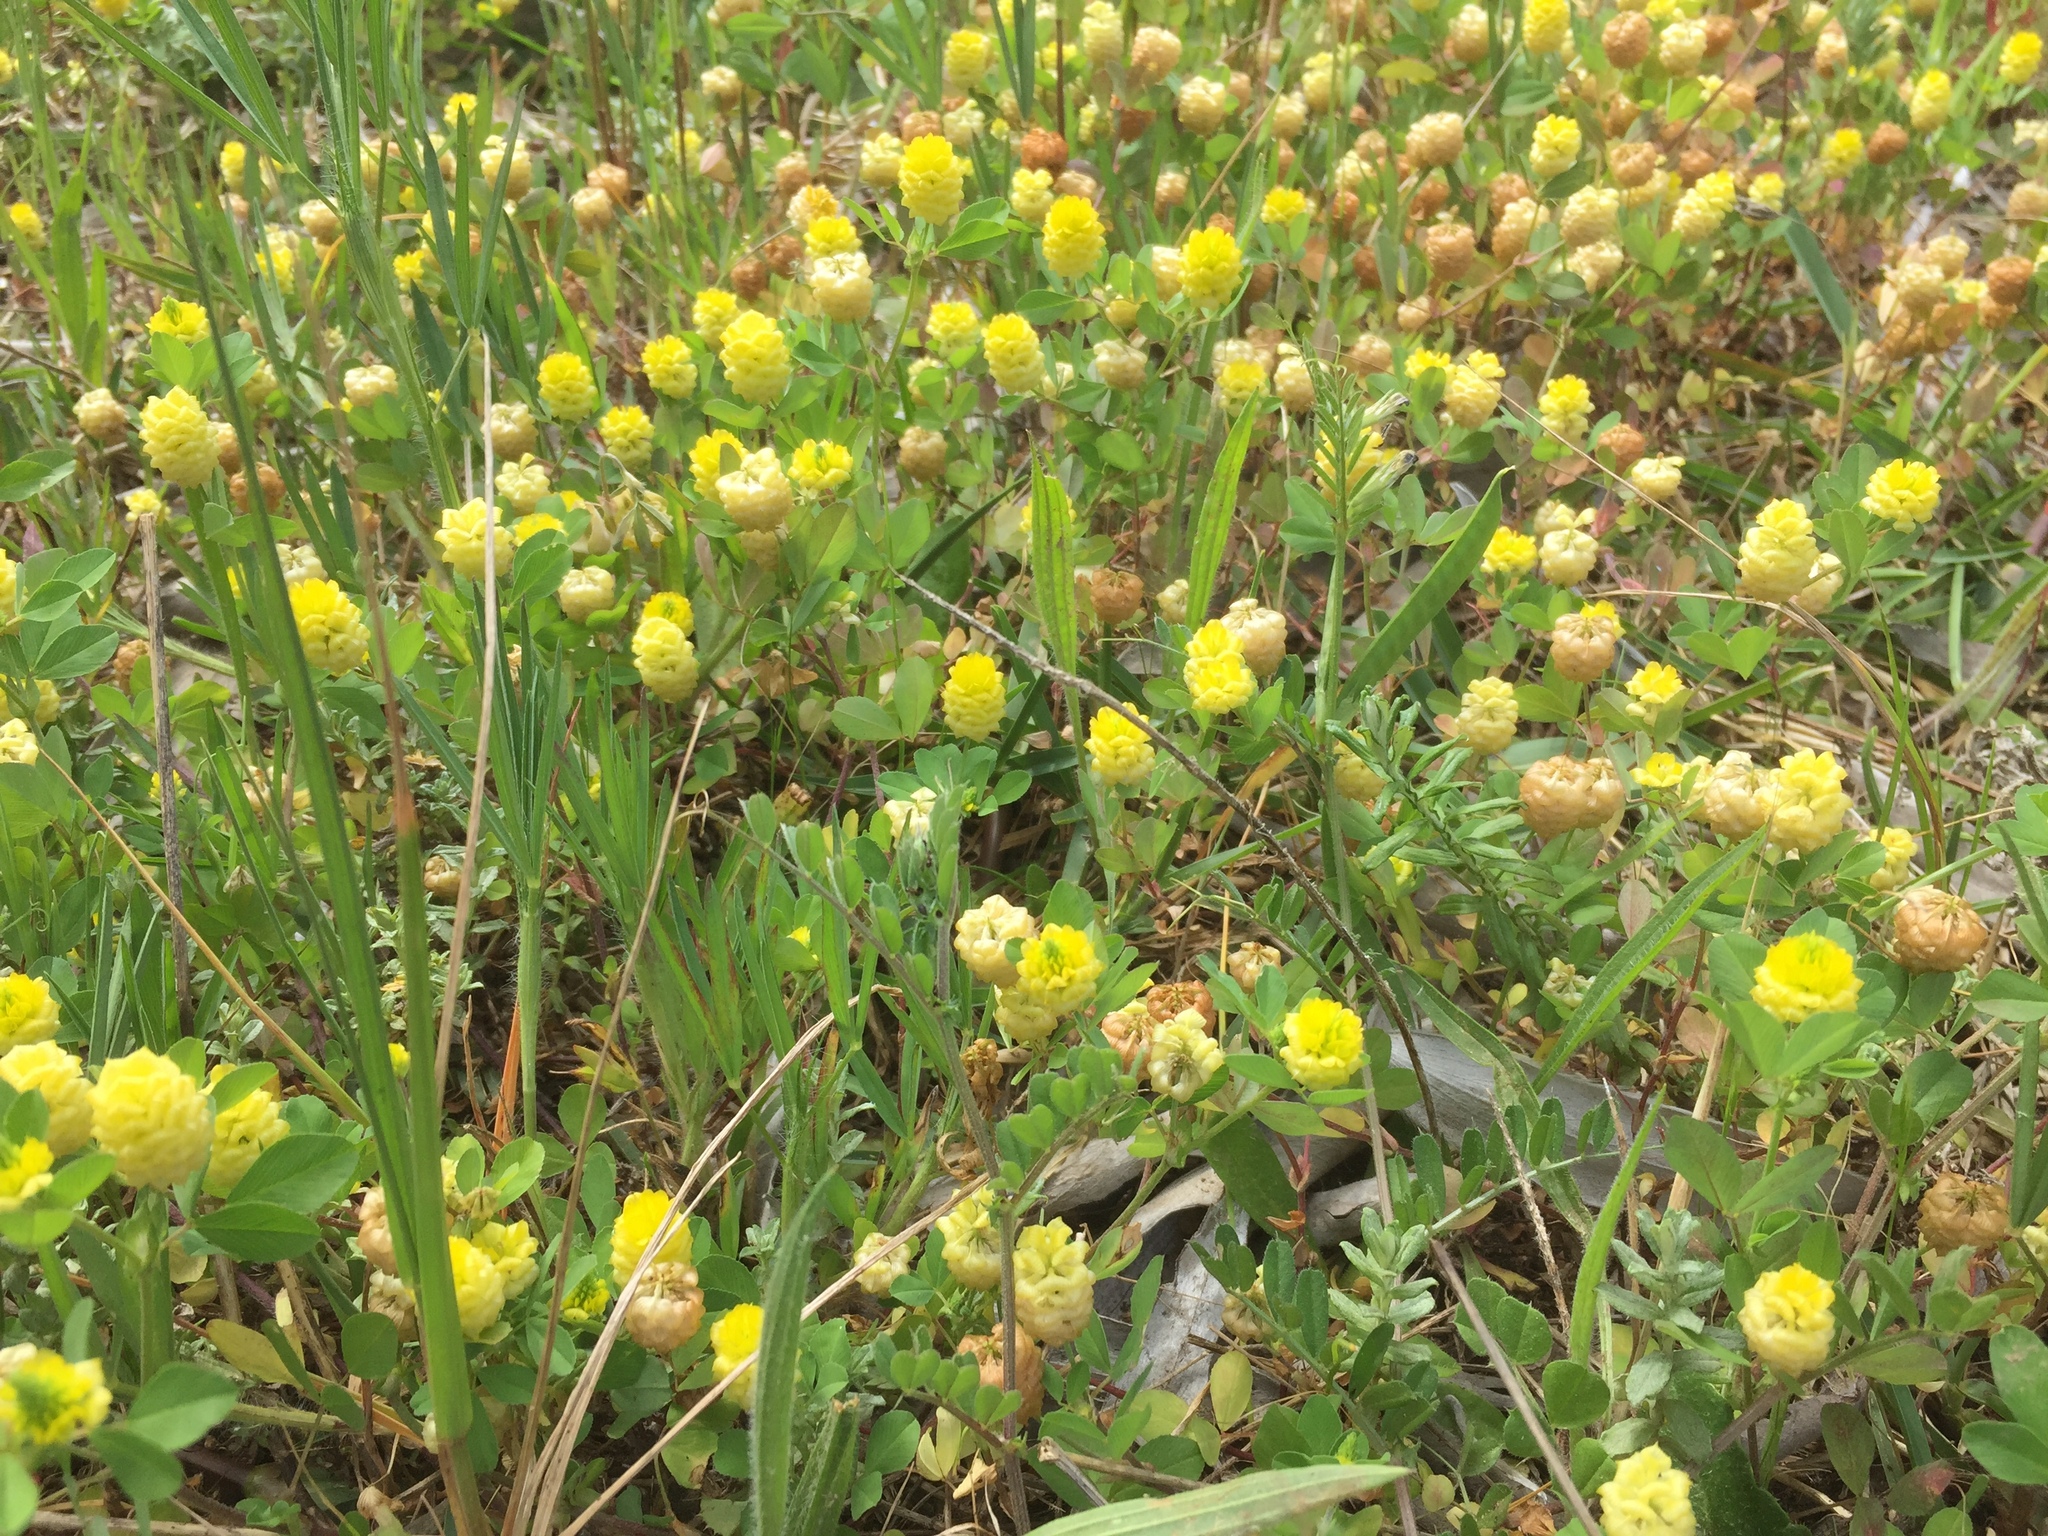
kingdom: Plantae
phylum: Tracheophyta
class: Magnoliopsida
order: Fabales
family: Fabaceae
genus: Trifolium
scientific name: Trifolium campestre
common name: Field clover
